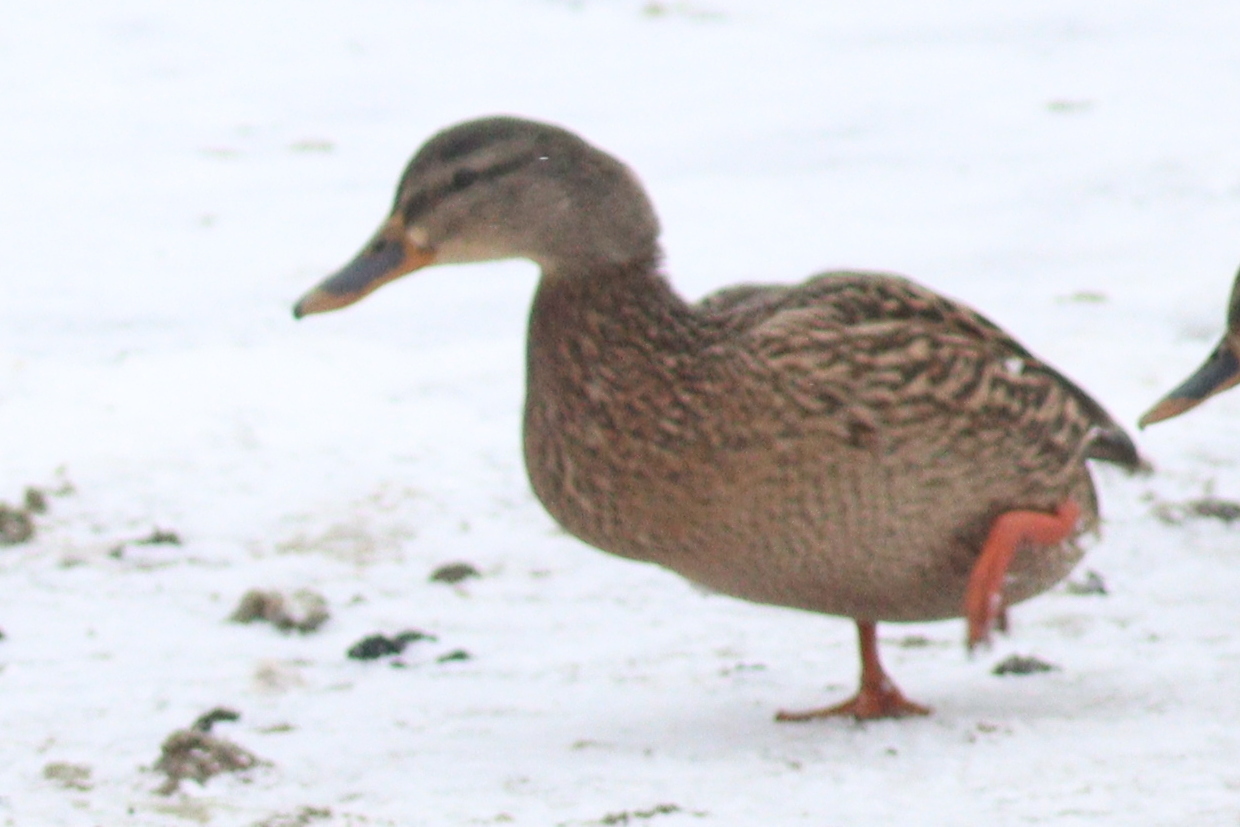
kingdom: Animalia
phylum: Chordata
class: Aves
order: Anseriformes
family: Anatidae
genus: Anas
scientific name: Anas platyrhynchos
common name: Mallard
